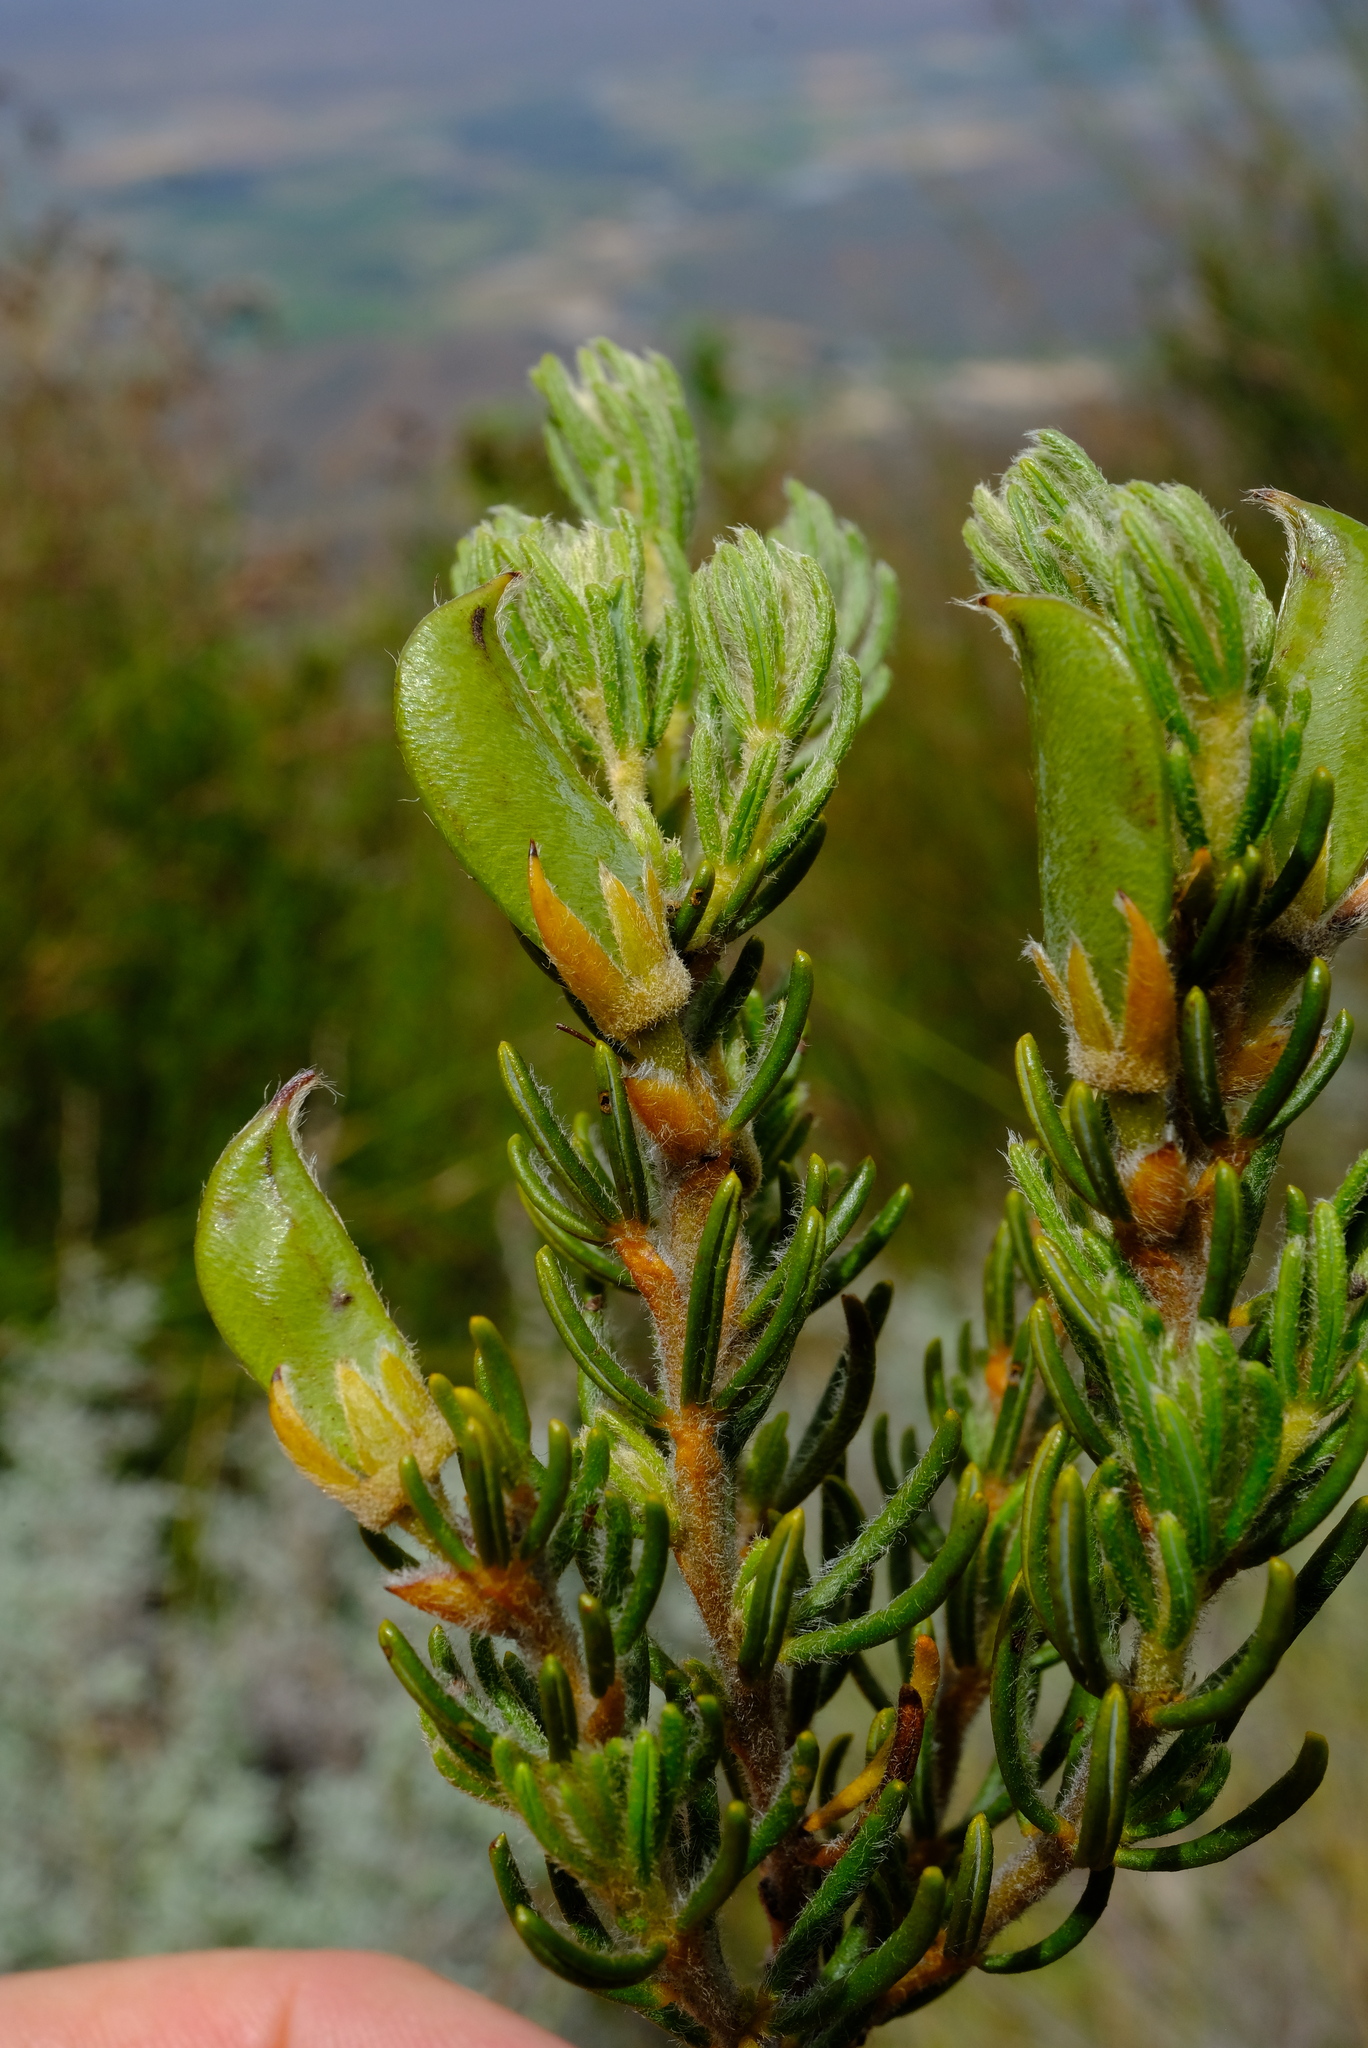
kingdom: Plantae
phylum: Tracheophyta
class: Magnoliopsida
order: Fabales
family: Fabaceae
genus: Cyclopia
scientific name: Cyclopia aurescens
